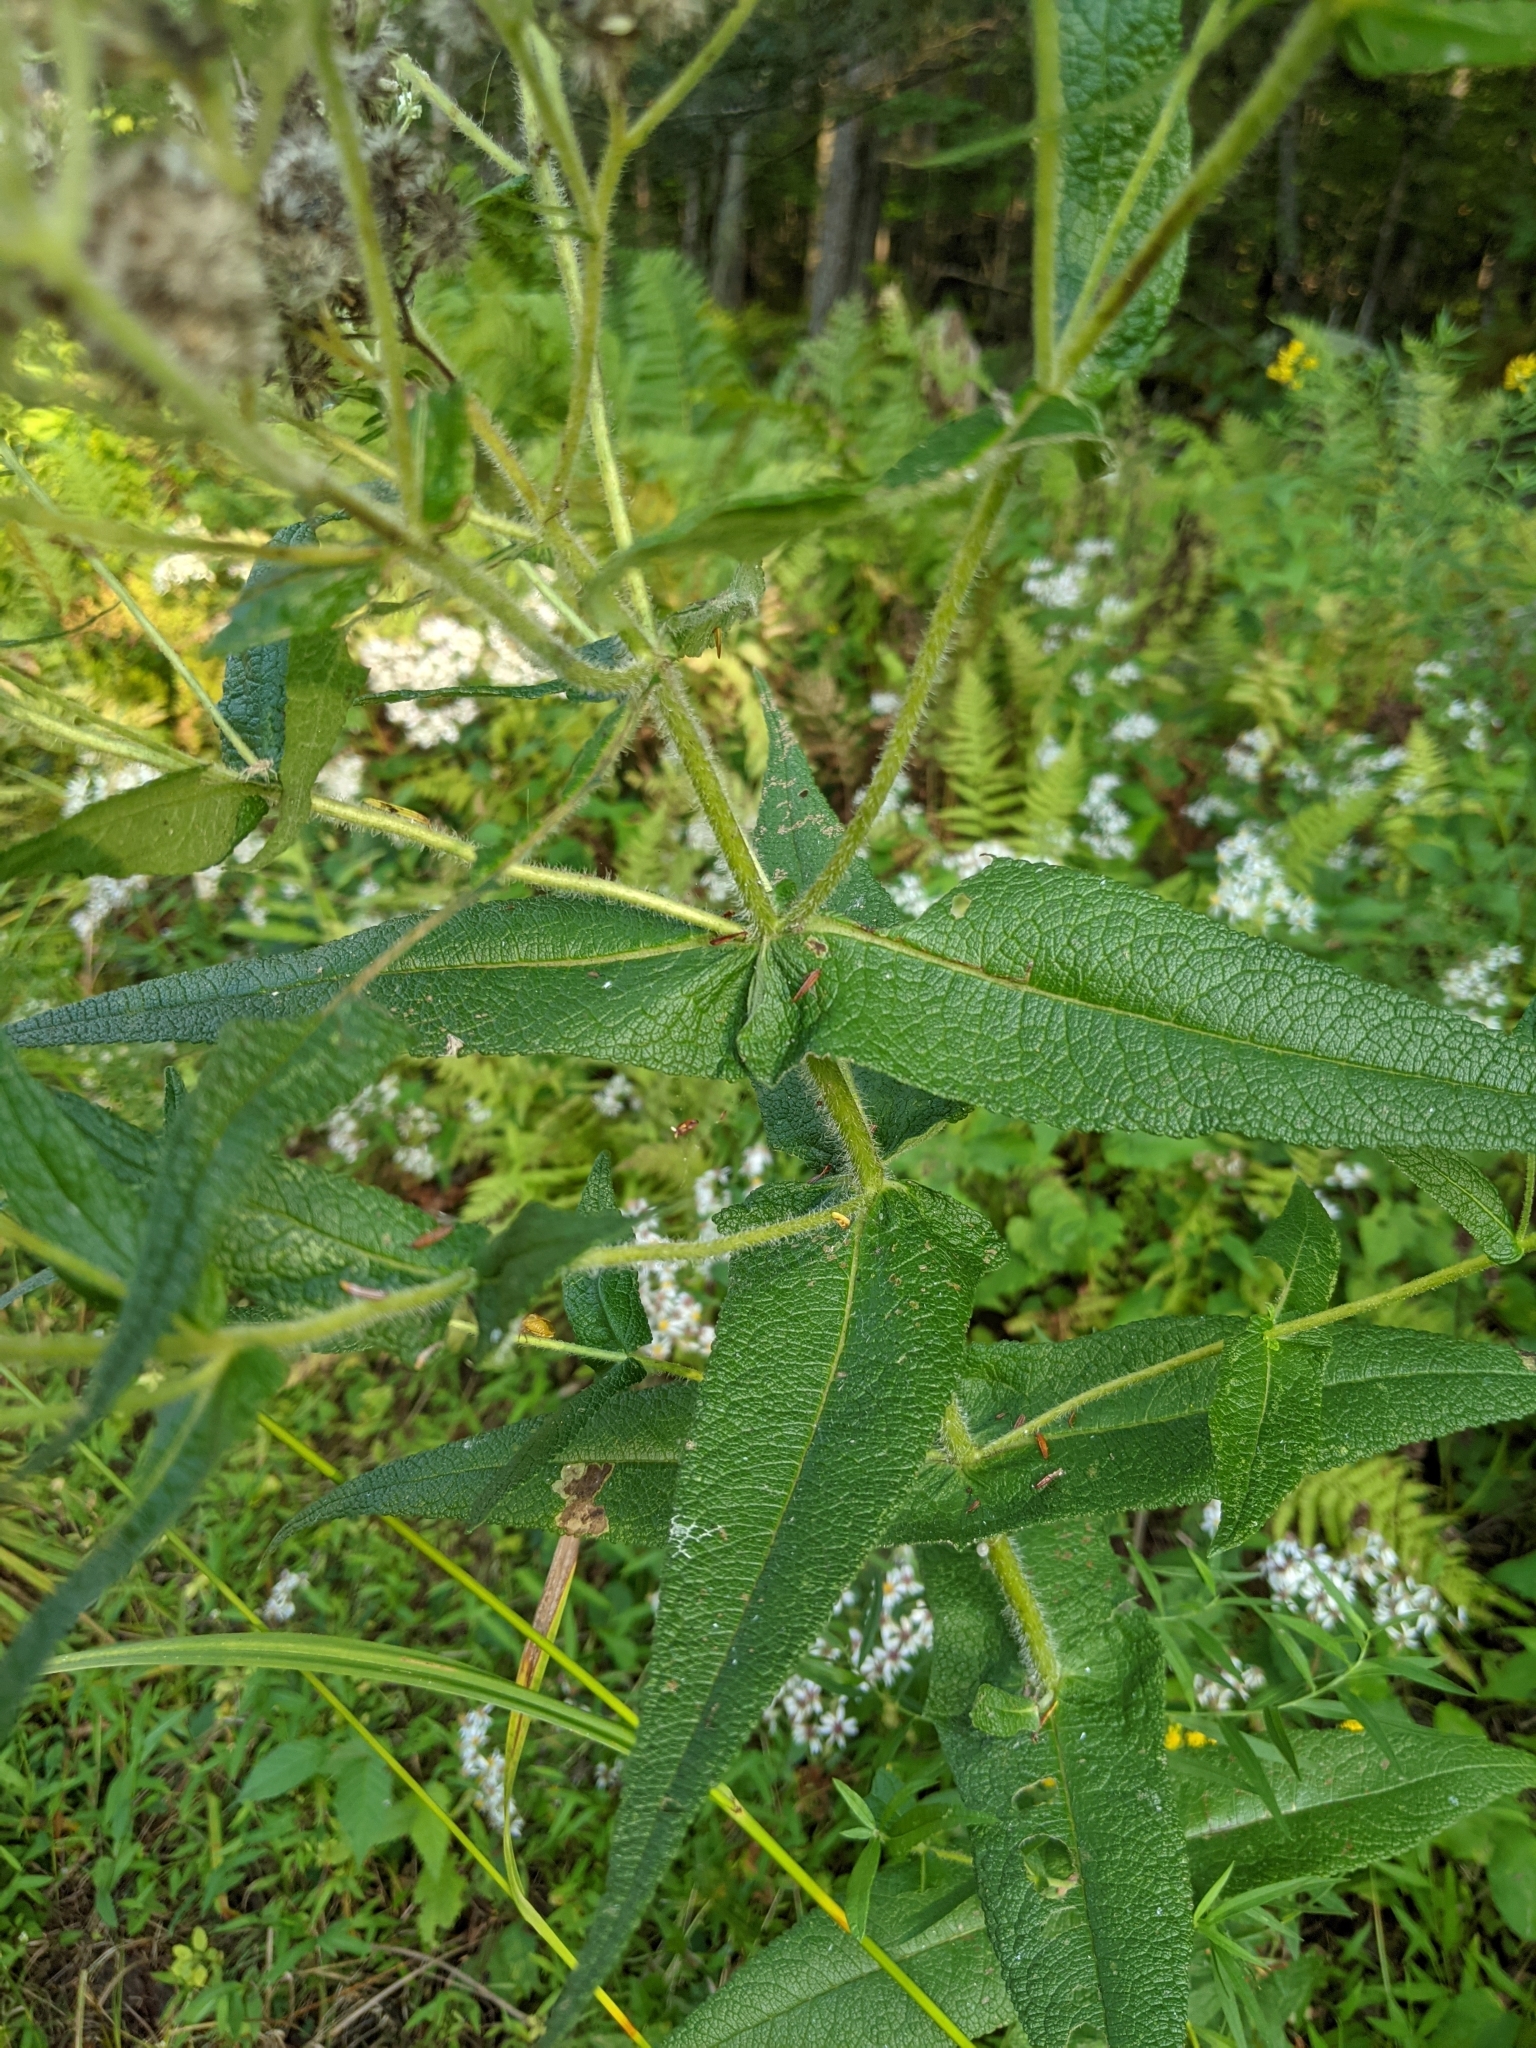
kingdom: Plantae
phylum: Tracheophyta
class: Magnoliopsida
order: Asterales
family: Asteraceae
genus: Eupatorium
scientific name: Eupatorium perfoliatum
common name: Boneset
